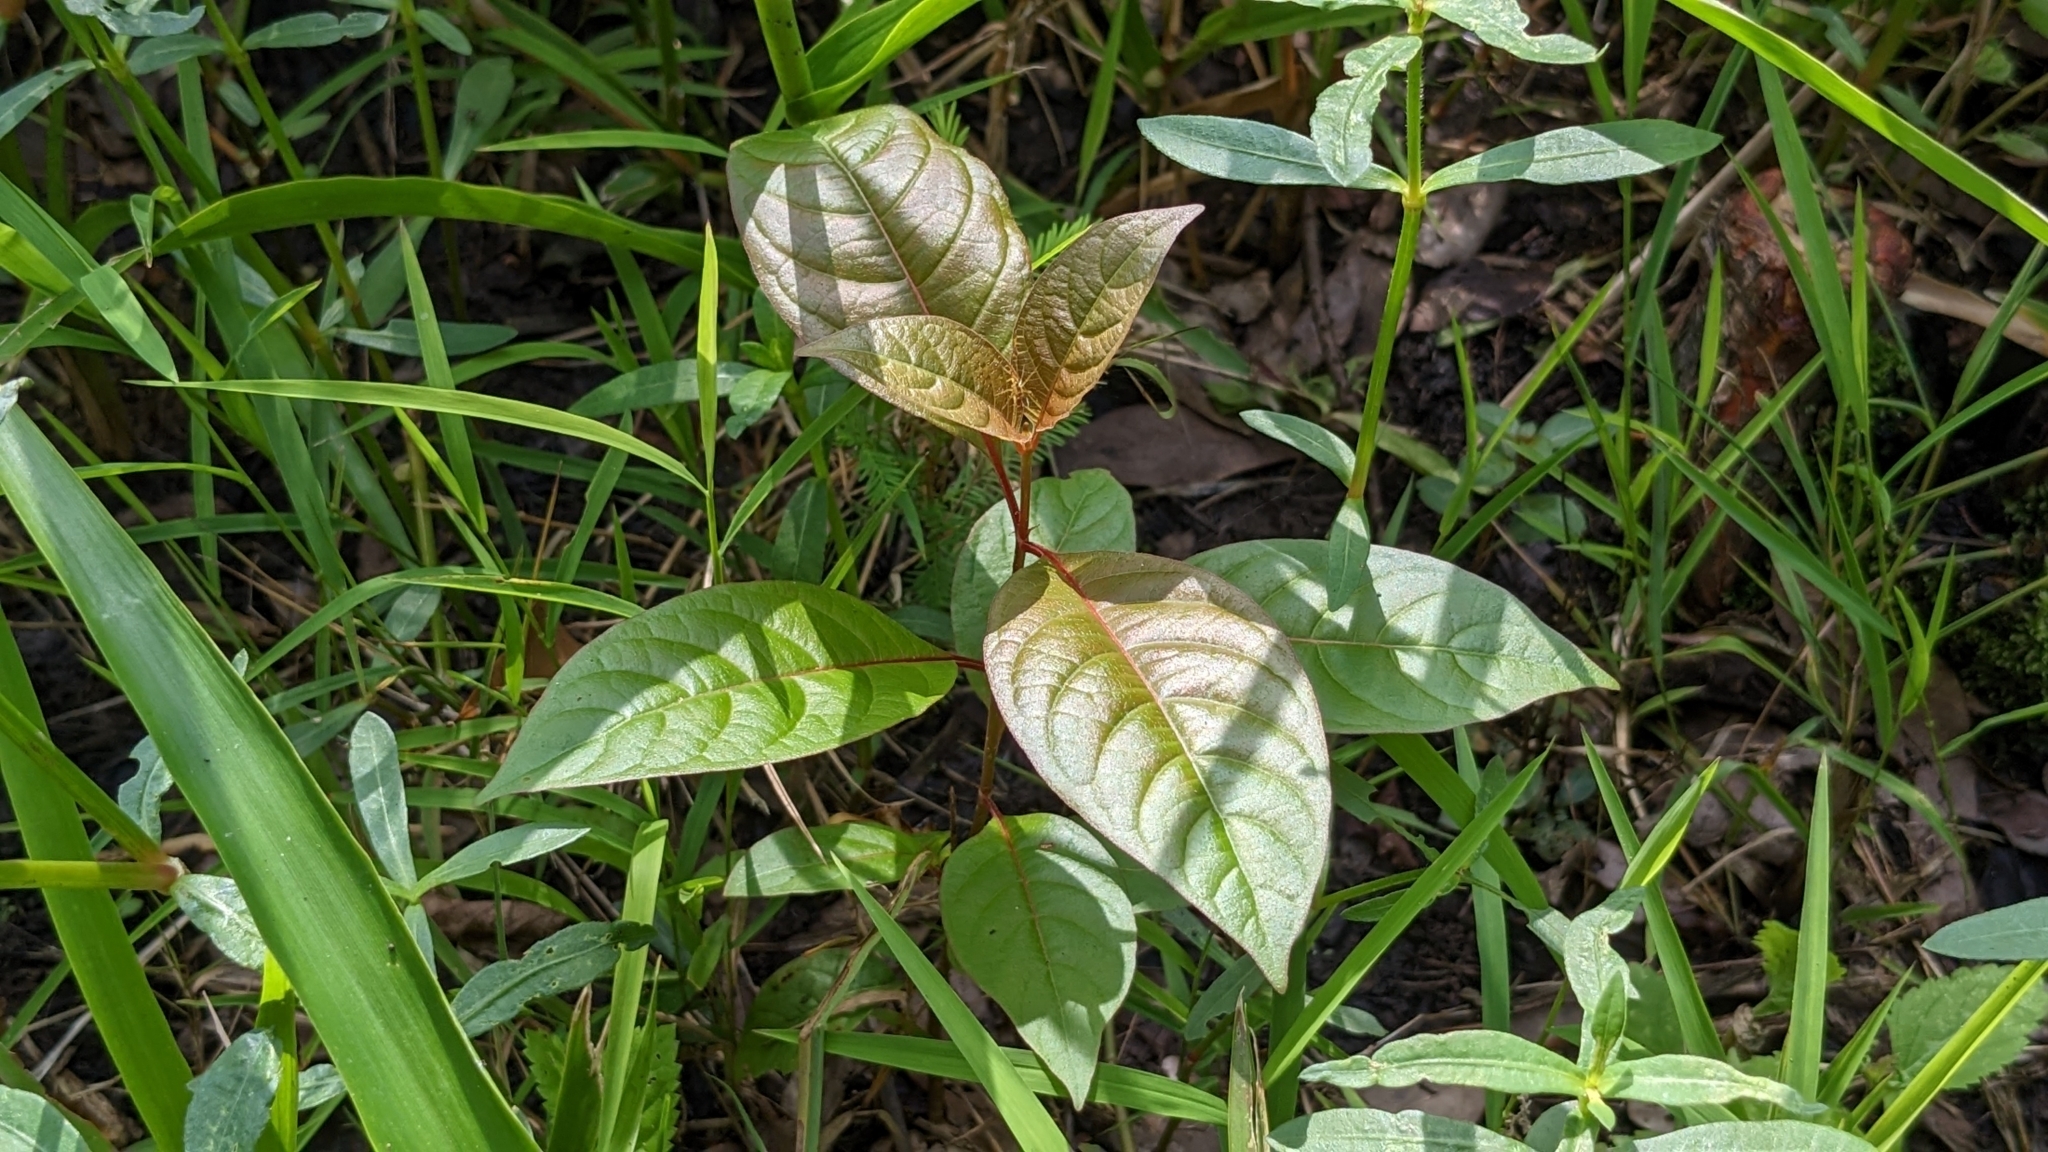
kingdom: Plantae
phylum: Tracheophyta
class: Magnoliopsida
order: Gentianales
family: Rubiaceae
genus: Cephalanthus
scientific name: Cephalanthus occidentalis
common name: Button-willow
